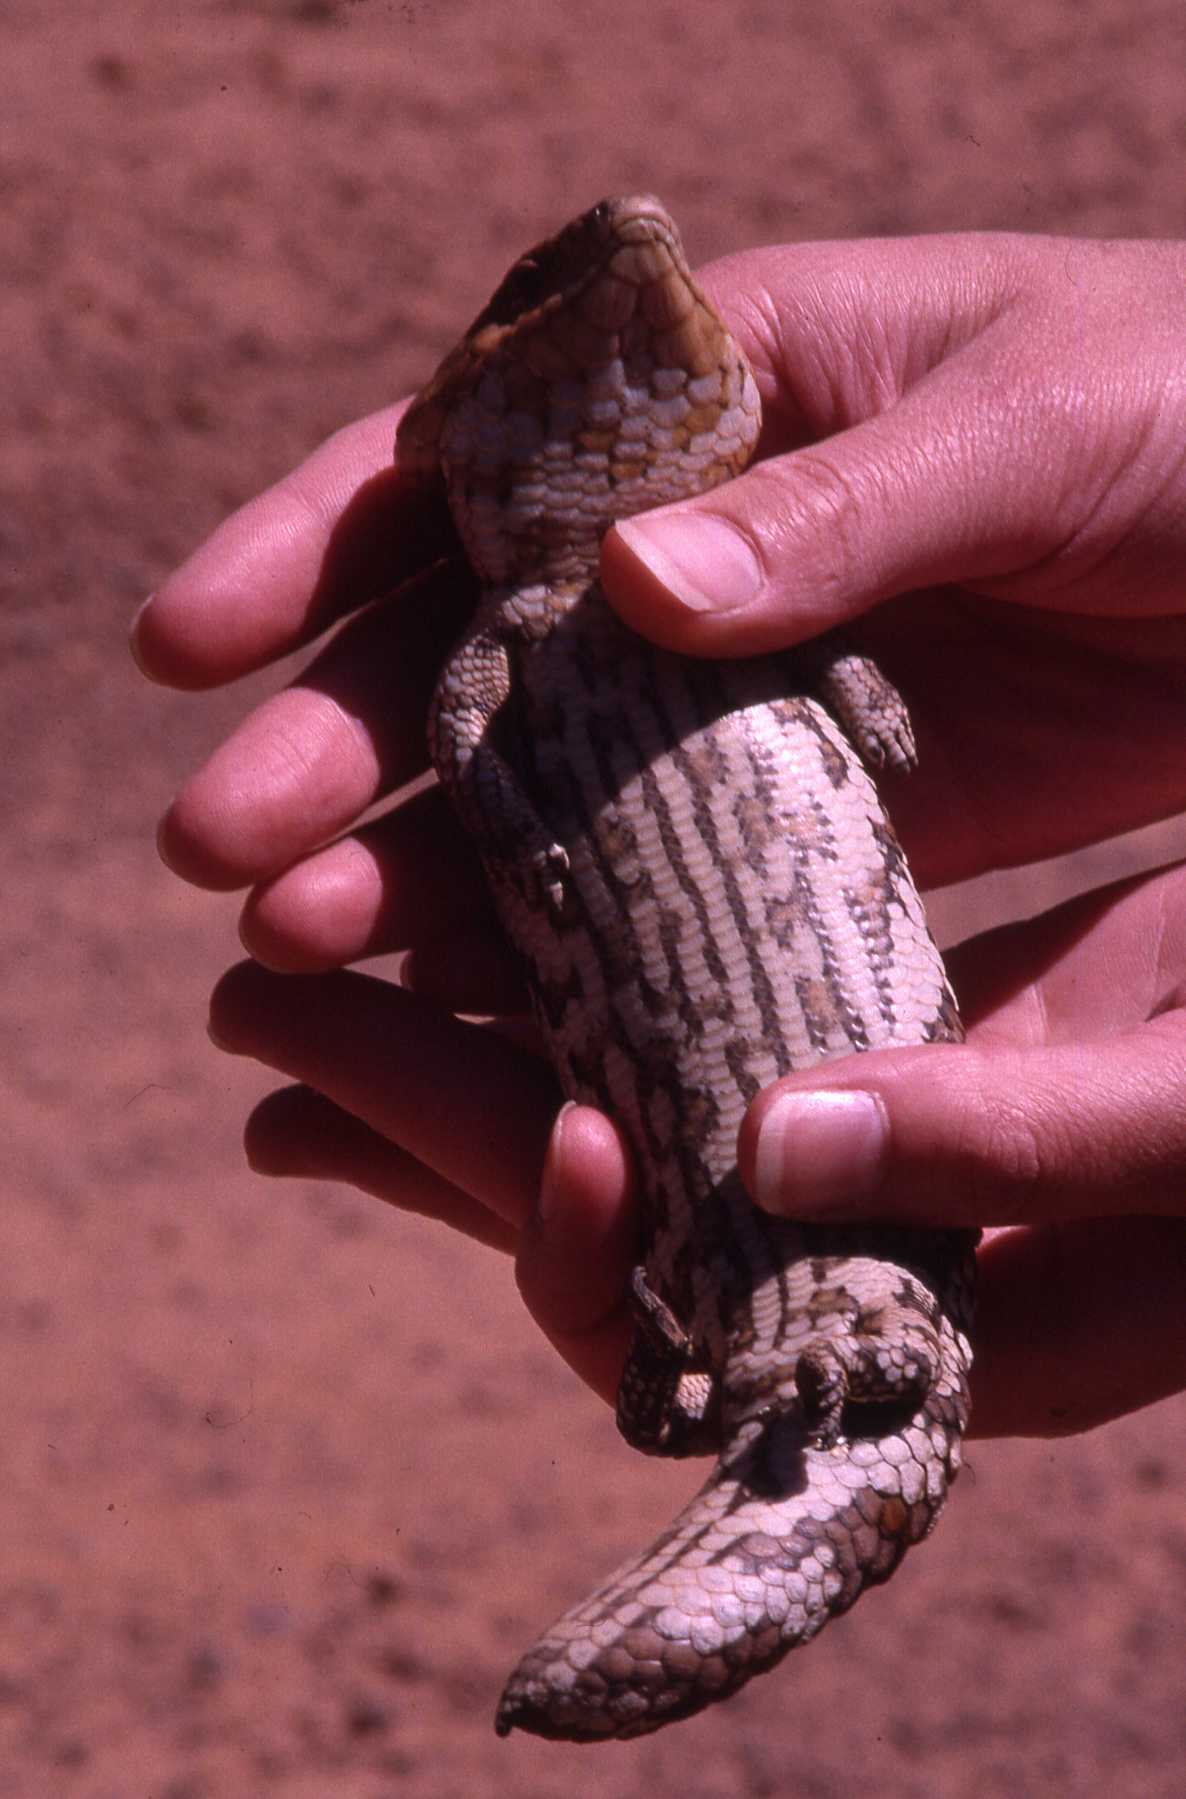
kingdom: Animalia
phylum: Chordata
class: Squamata
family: Scincidae
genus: Tiliqua
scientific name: Tiliqua rugosa
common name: Pinecone lizard
